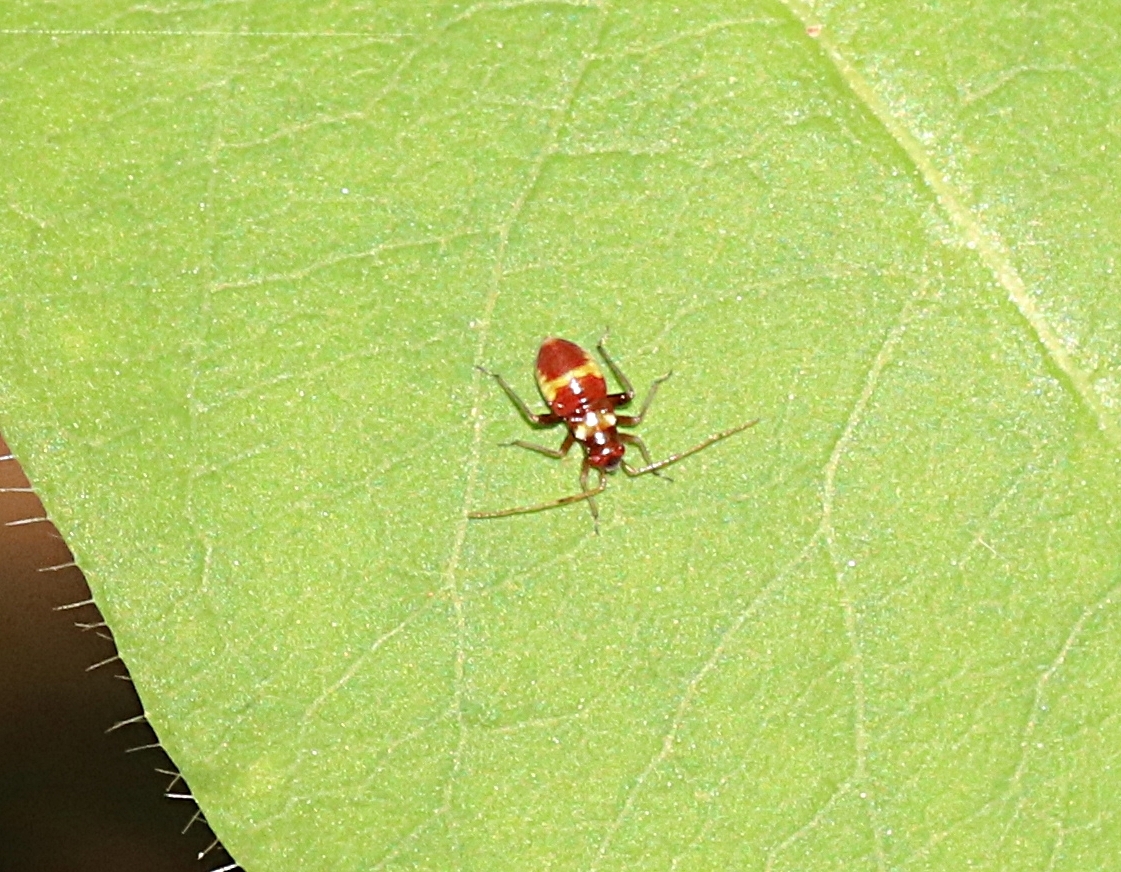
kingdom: Animalia
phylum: Arthropoda
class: Insecta
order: Hemiptera
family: Miridae
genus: Closterotomus
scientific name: Closterotomus fulvomaculatus
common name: Spotted plant bug
